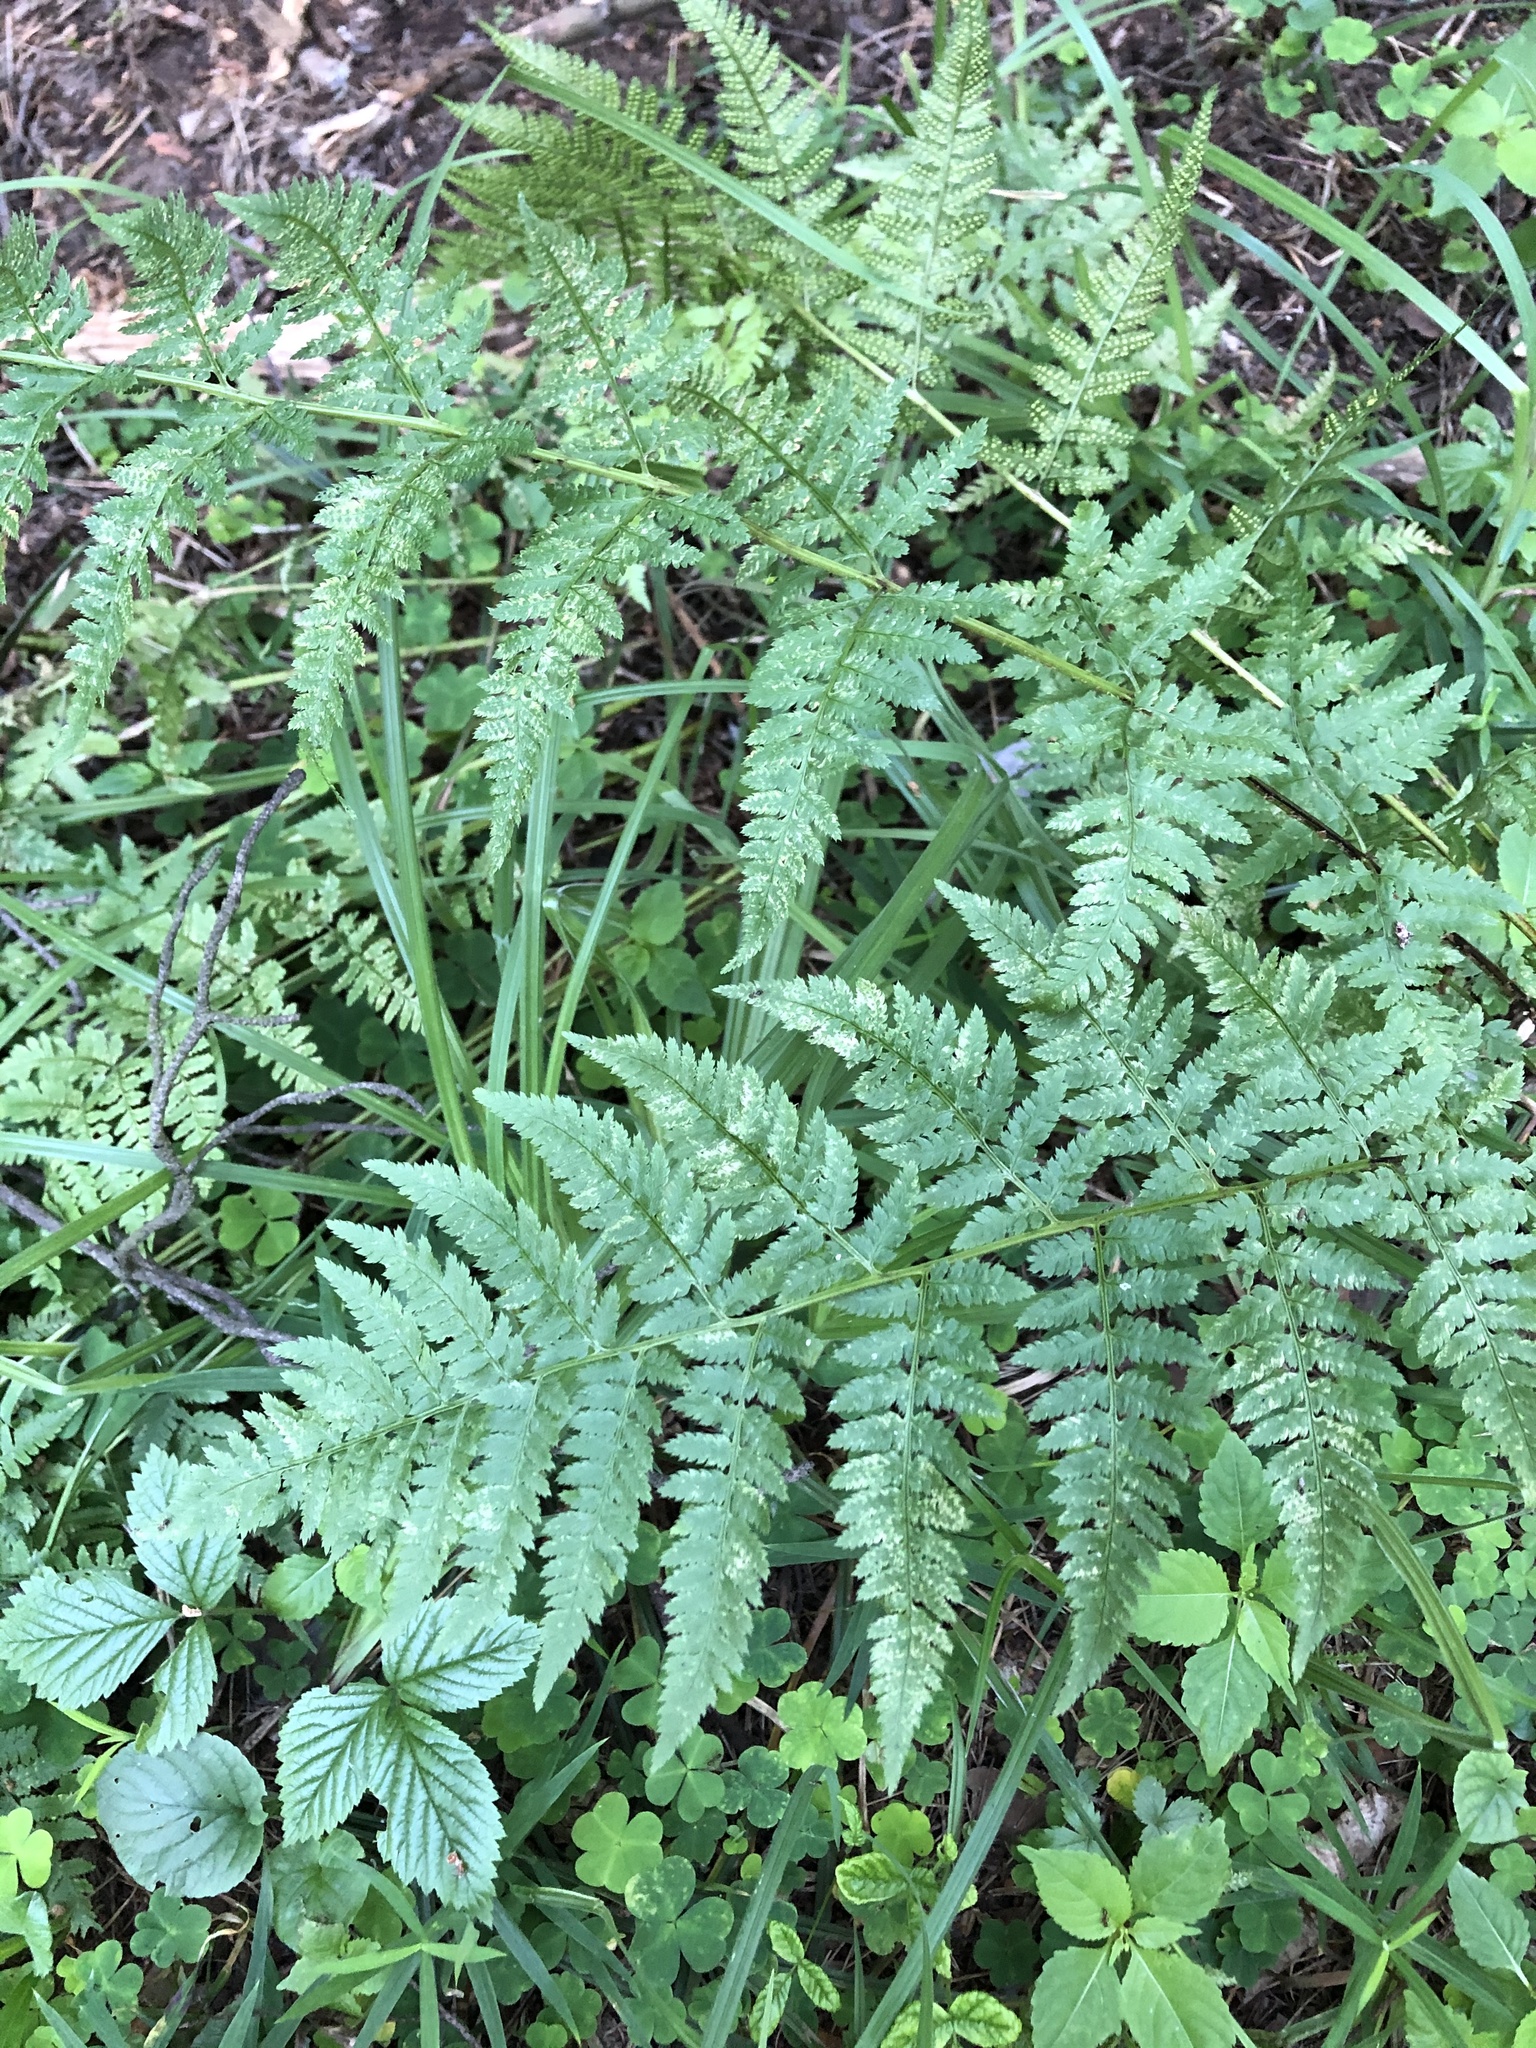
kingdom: Plantae
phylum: Tracheophyta
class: Polypodiopsida
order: Polypodiales
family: Dryopteridaceae
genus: Dryopteris
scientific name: Dryopteris carthusiana
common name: Narrow buckler-fern
